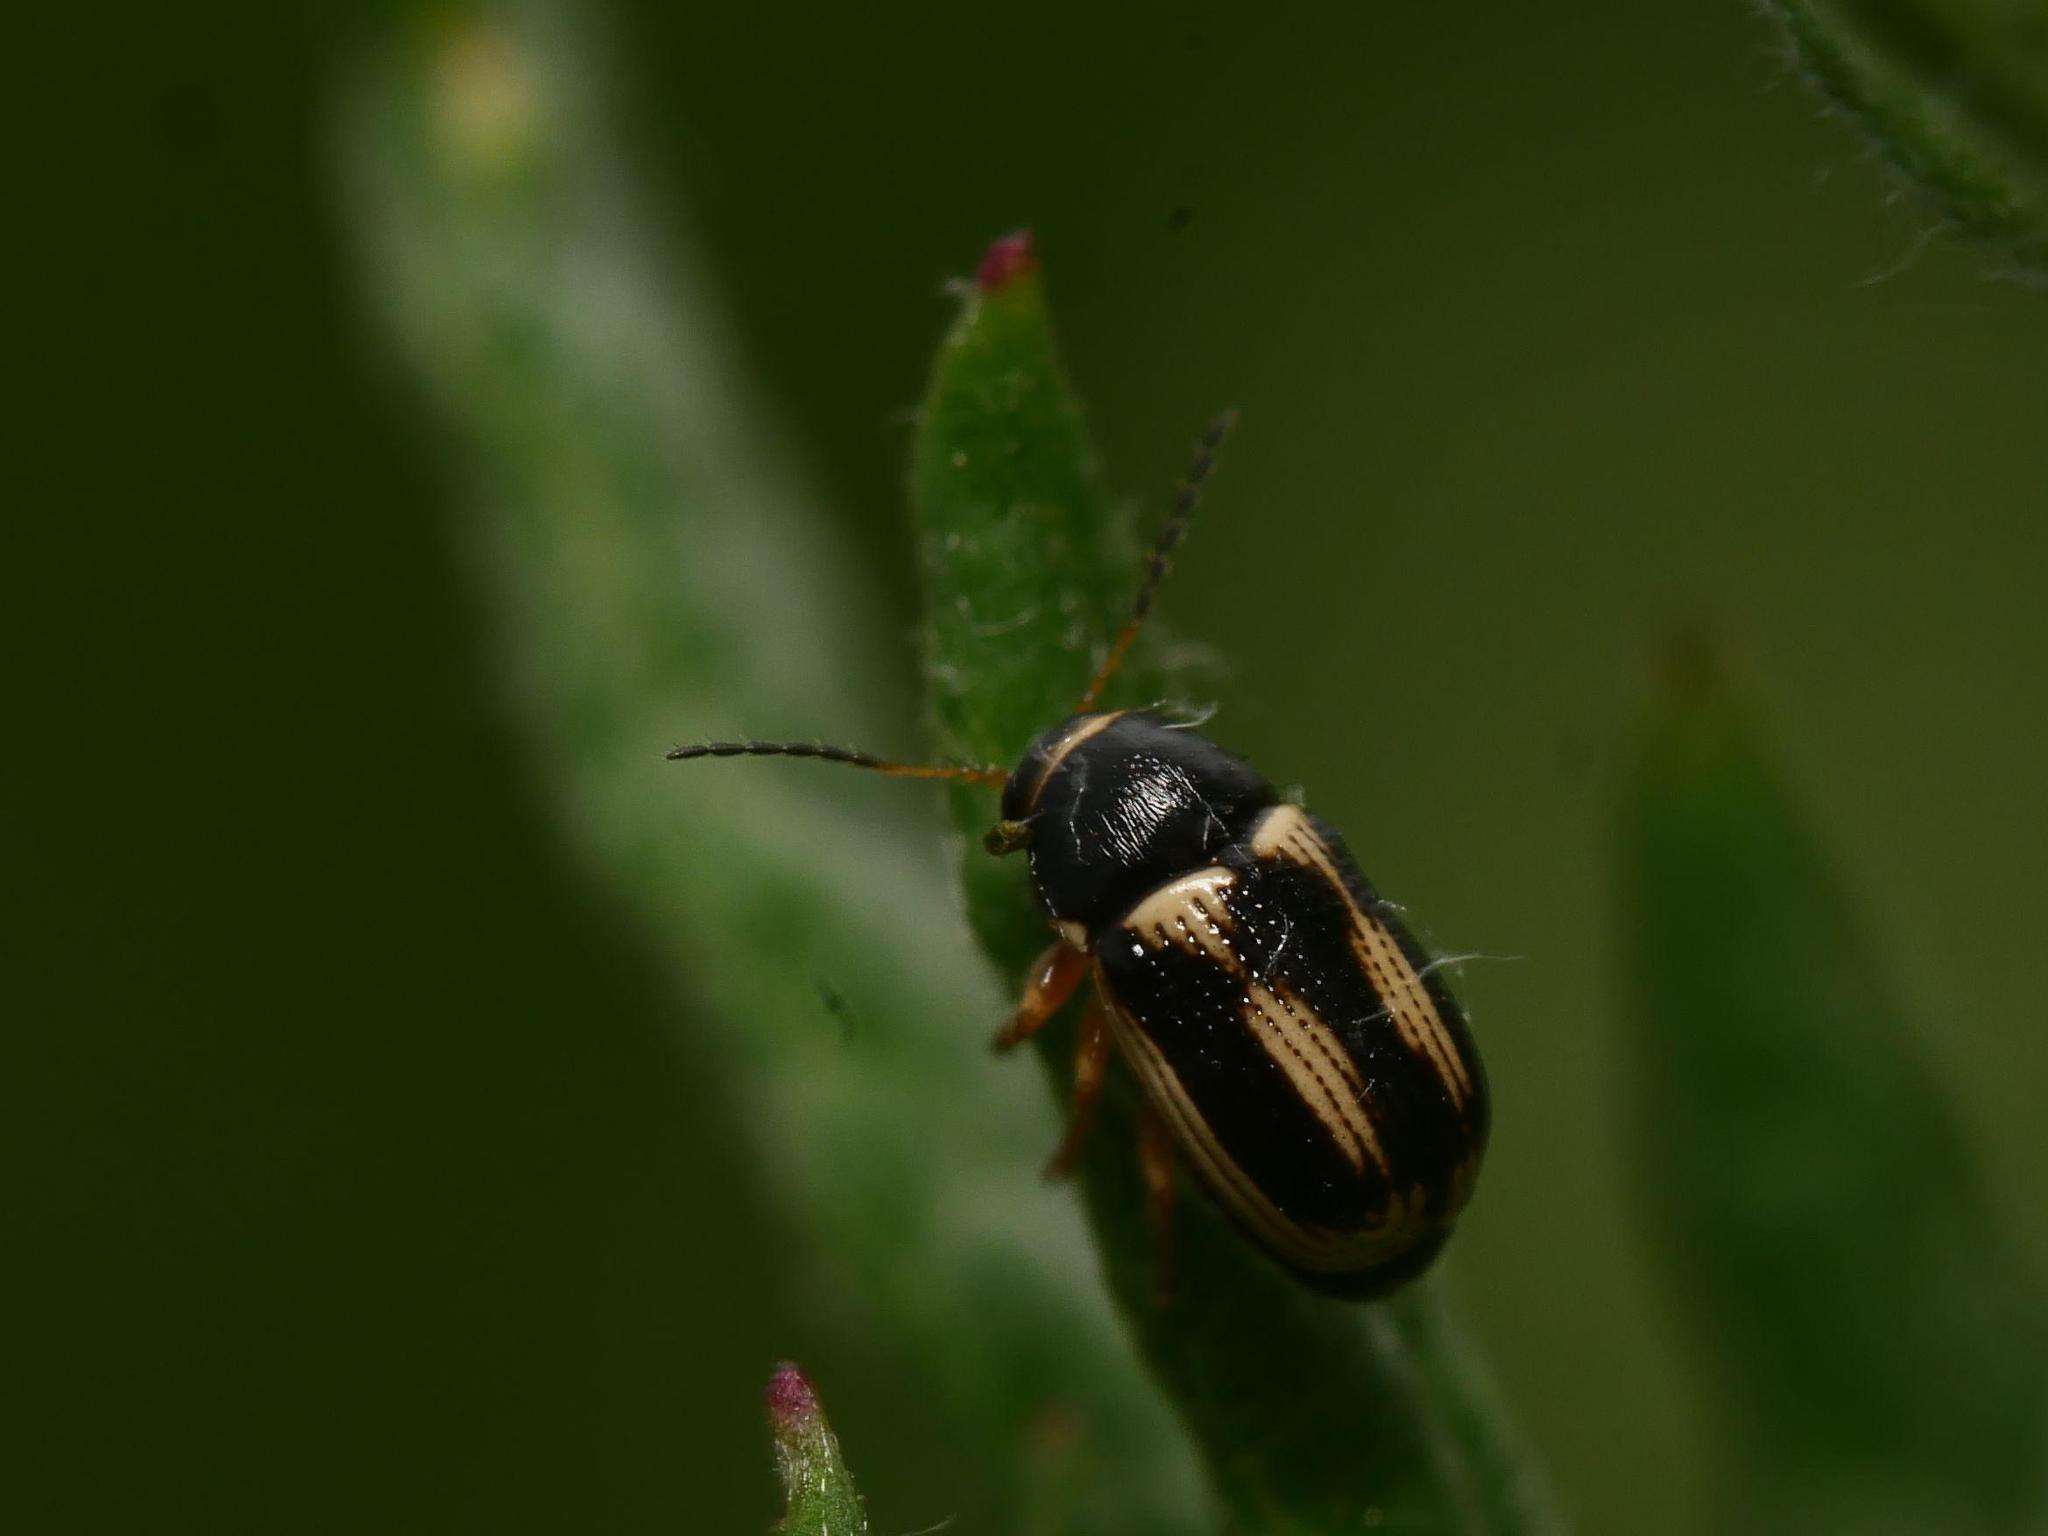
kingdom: Animalia
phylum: Arthropoda
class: Insecta
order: Coleoptera
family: Chrysomelidae
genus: Cryptocephalus
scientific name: Cryptocephalus bilineatus
